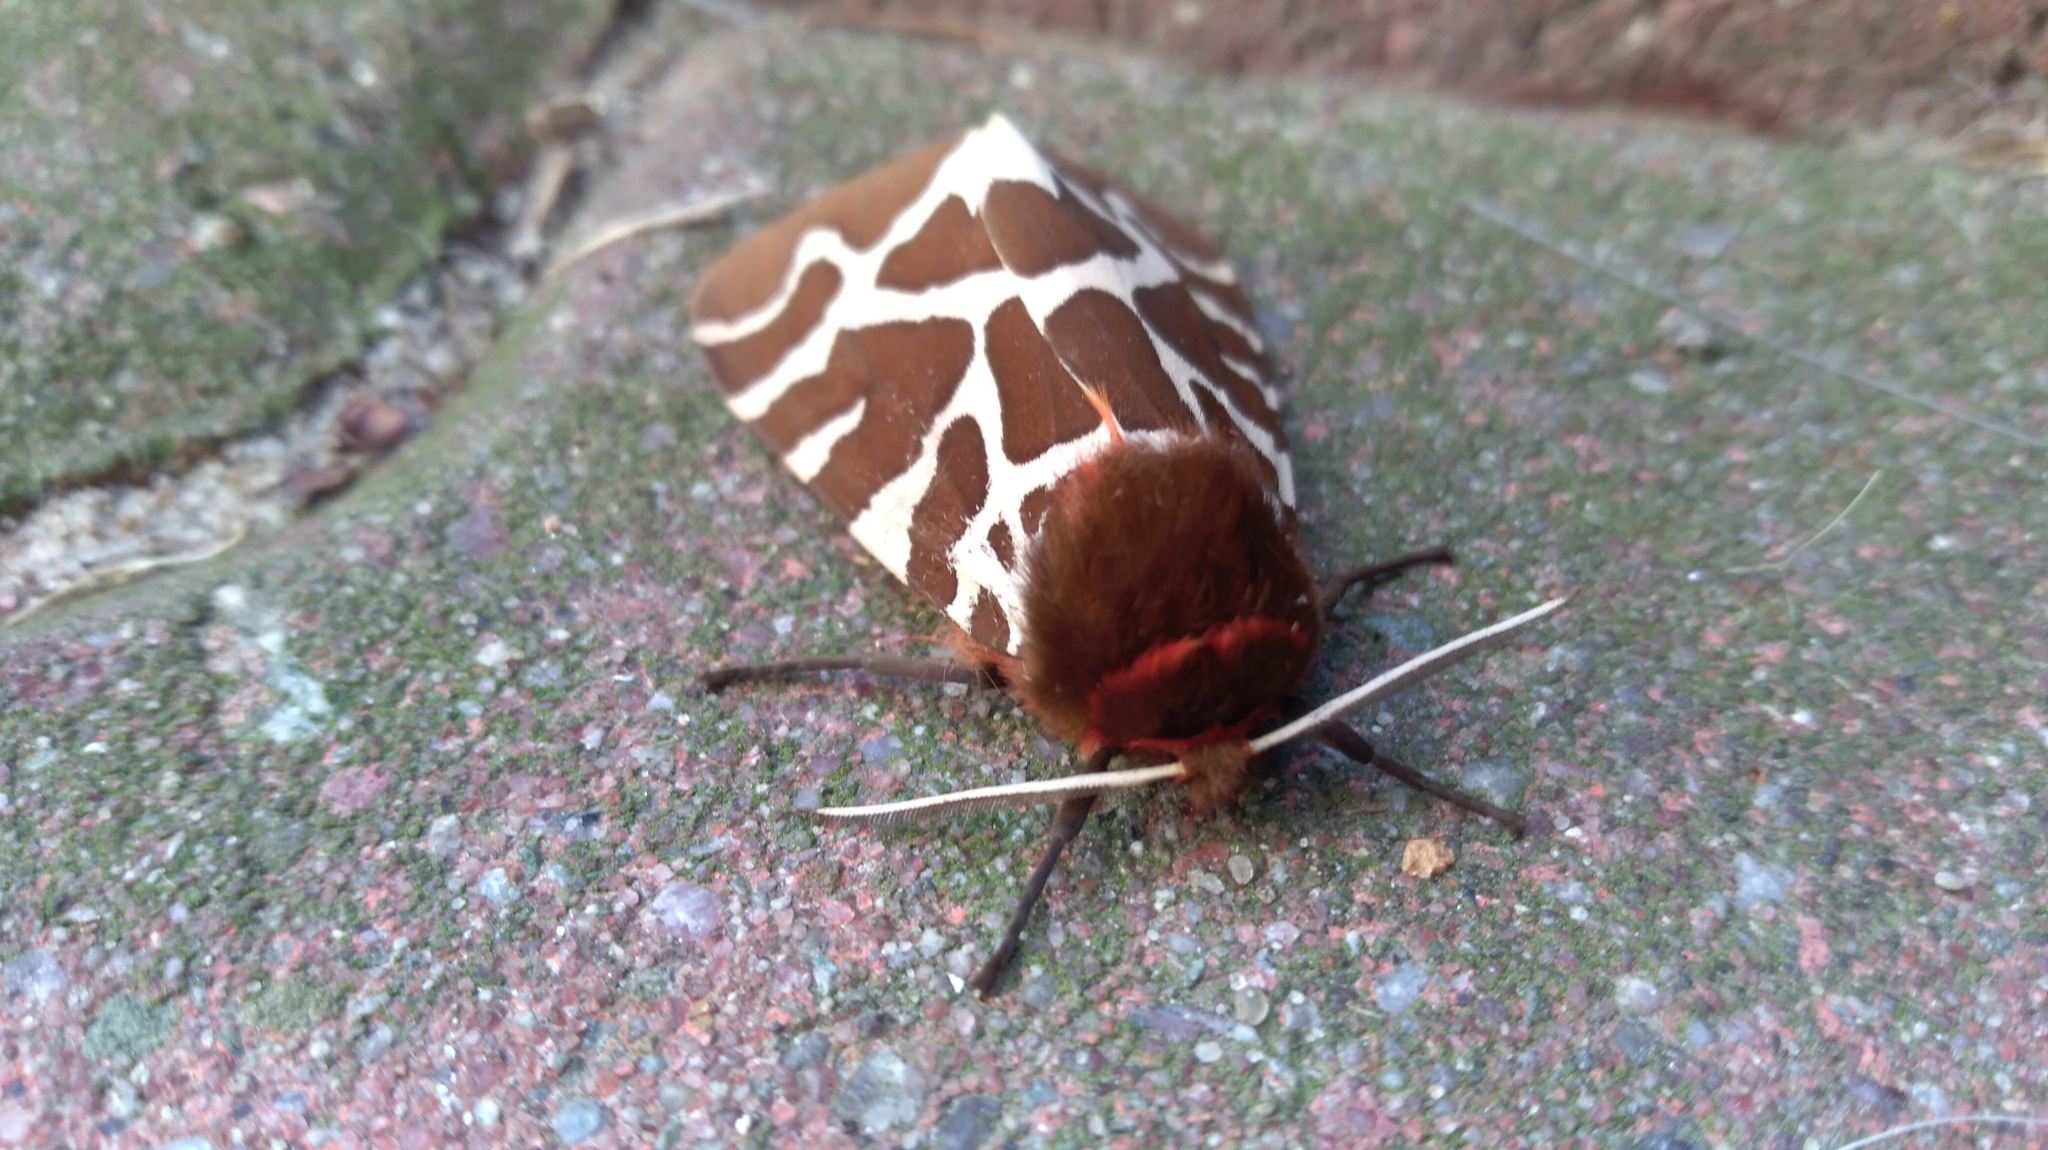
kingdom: Animalia
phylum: Arthropoda
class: Insecta
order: Lepidoptera
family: Erebidae
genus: Arctia
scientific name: Arctia caja
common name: Garden tiger
